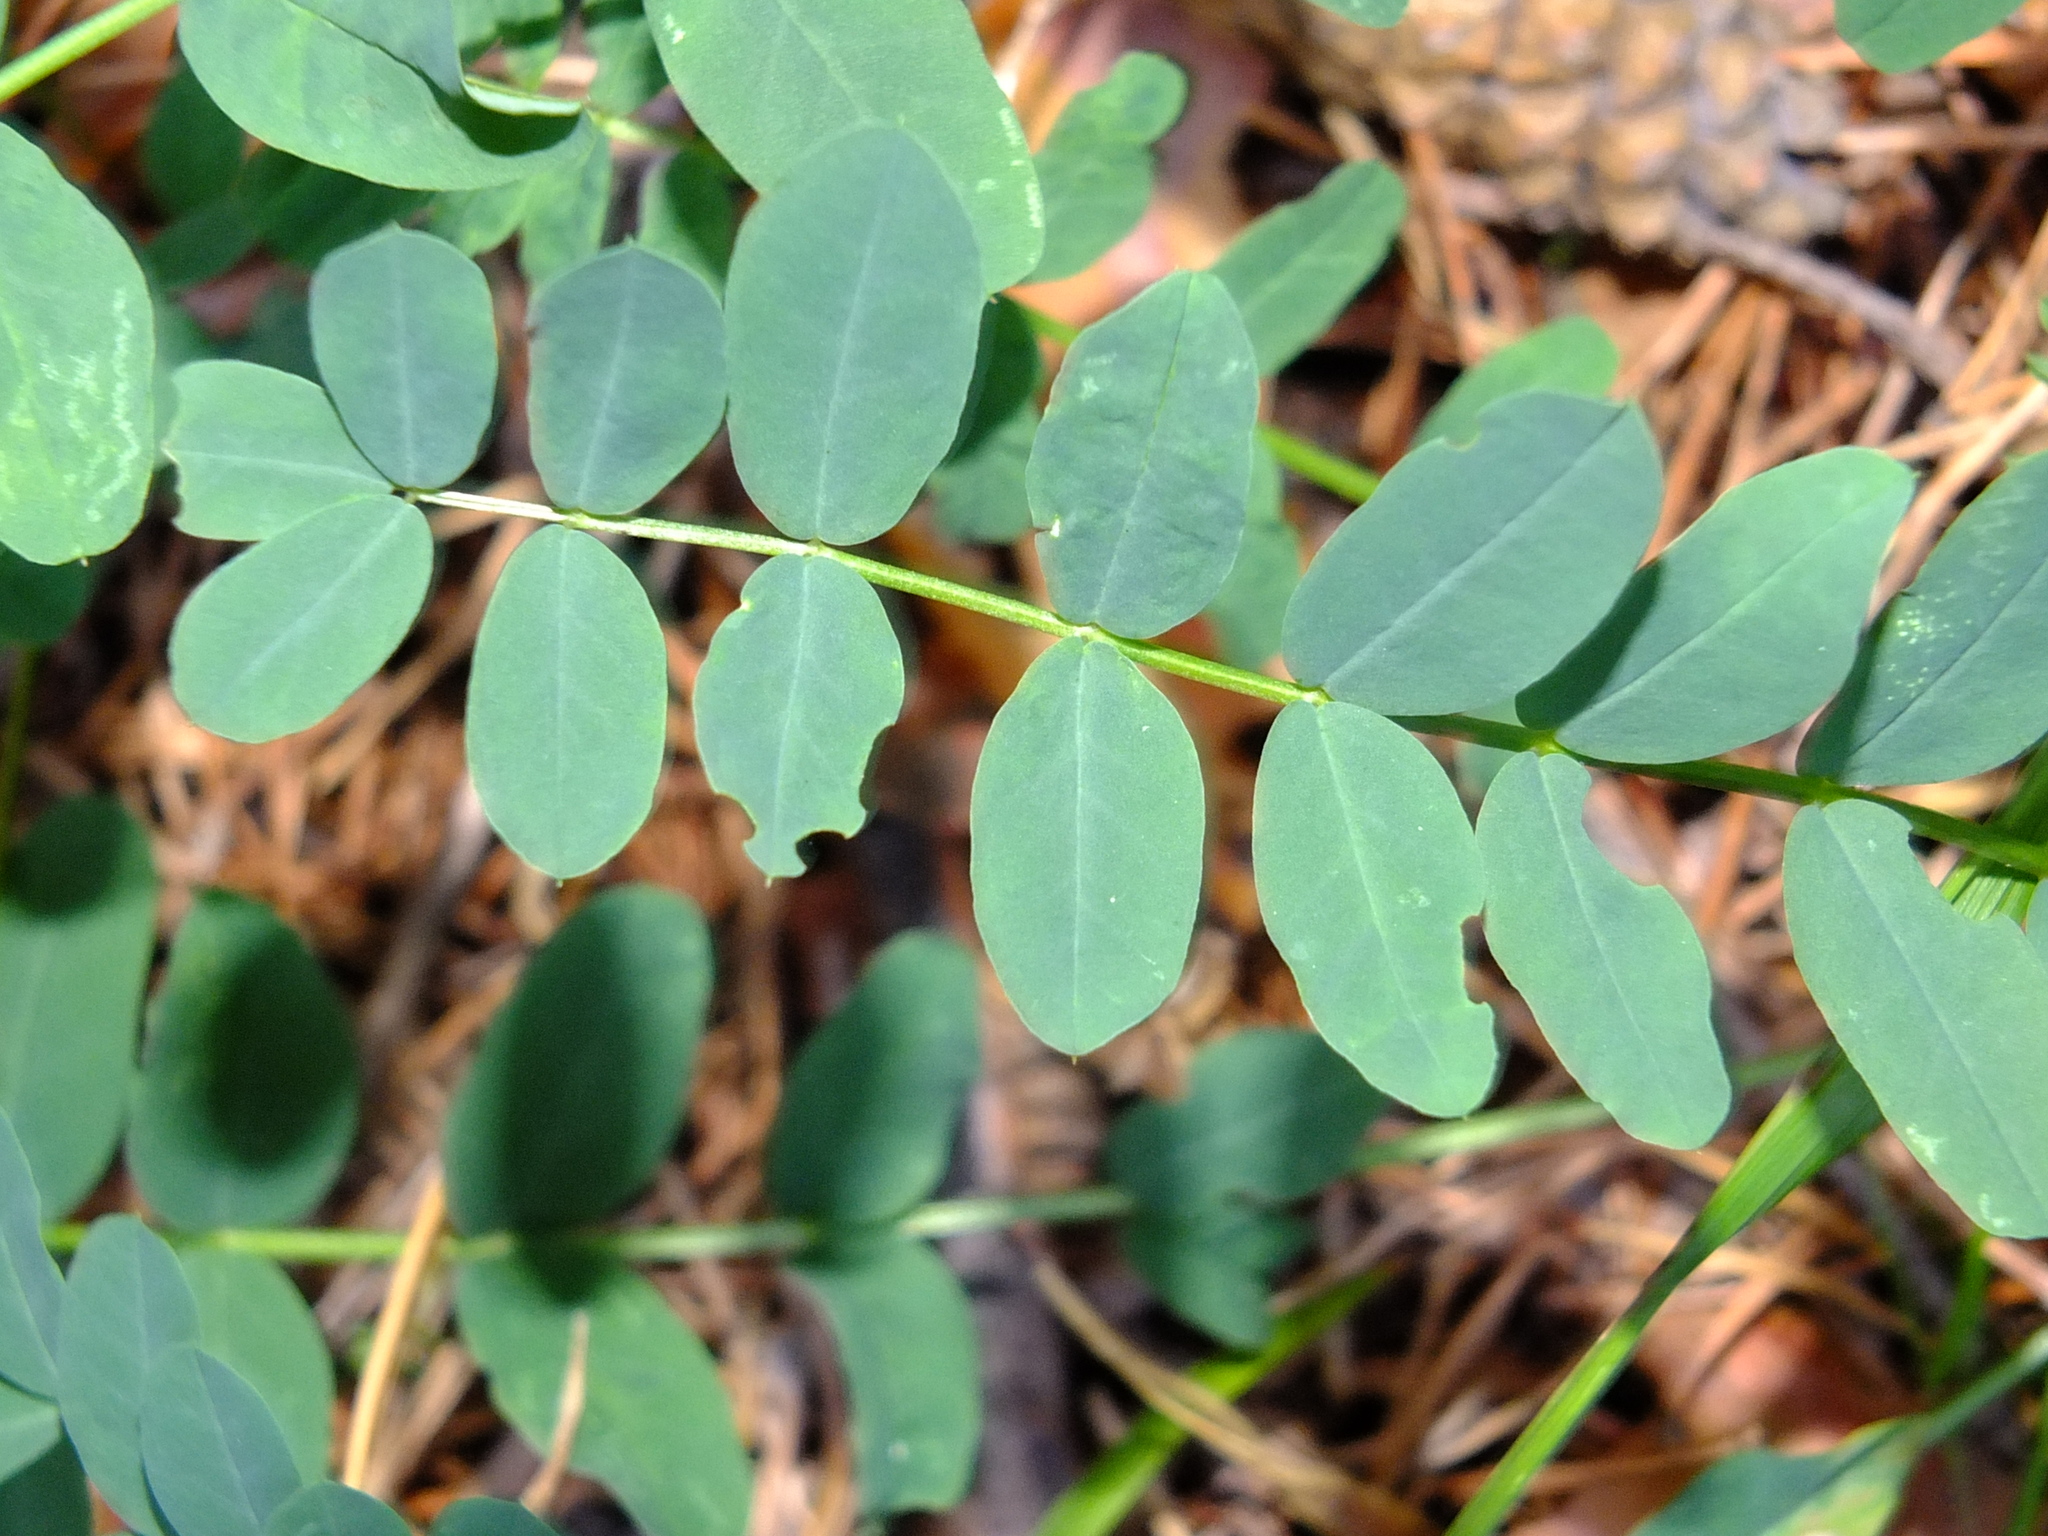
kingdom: Plantae
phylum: Tracheophyta
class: Magnoliopsida
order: Fabales
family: Fabaceae
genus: Coronilla
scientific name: Coronilla varia
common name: Crownvetch
